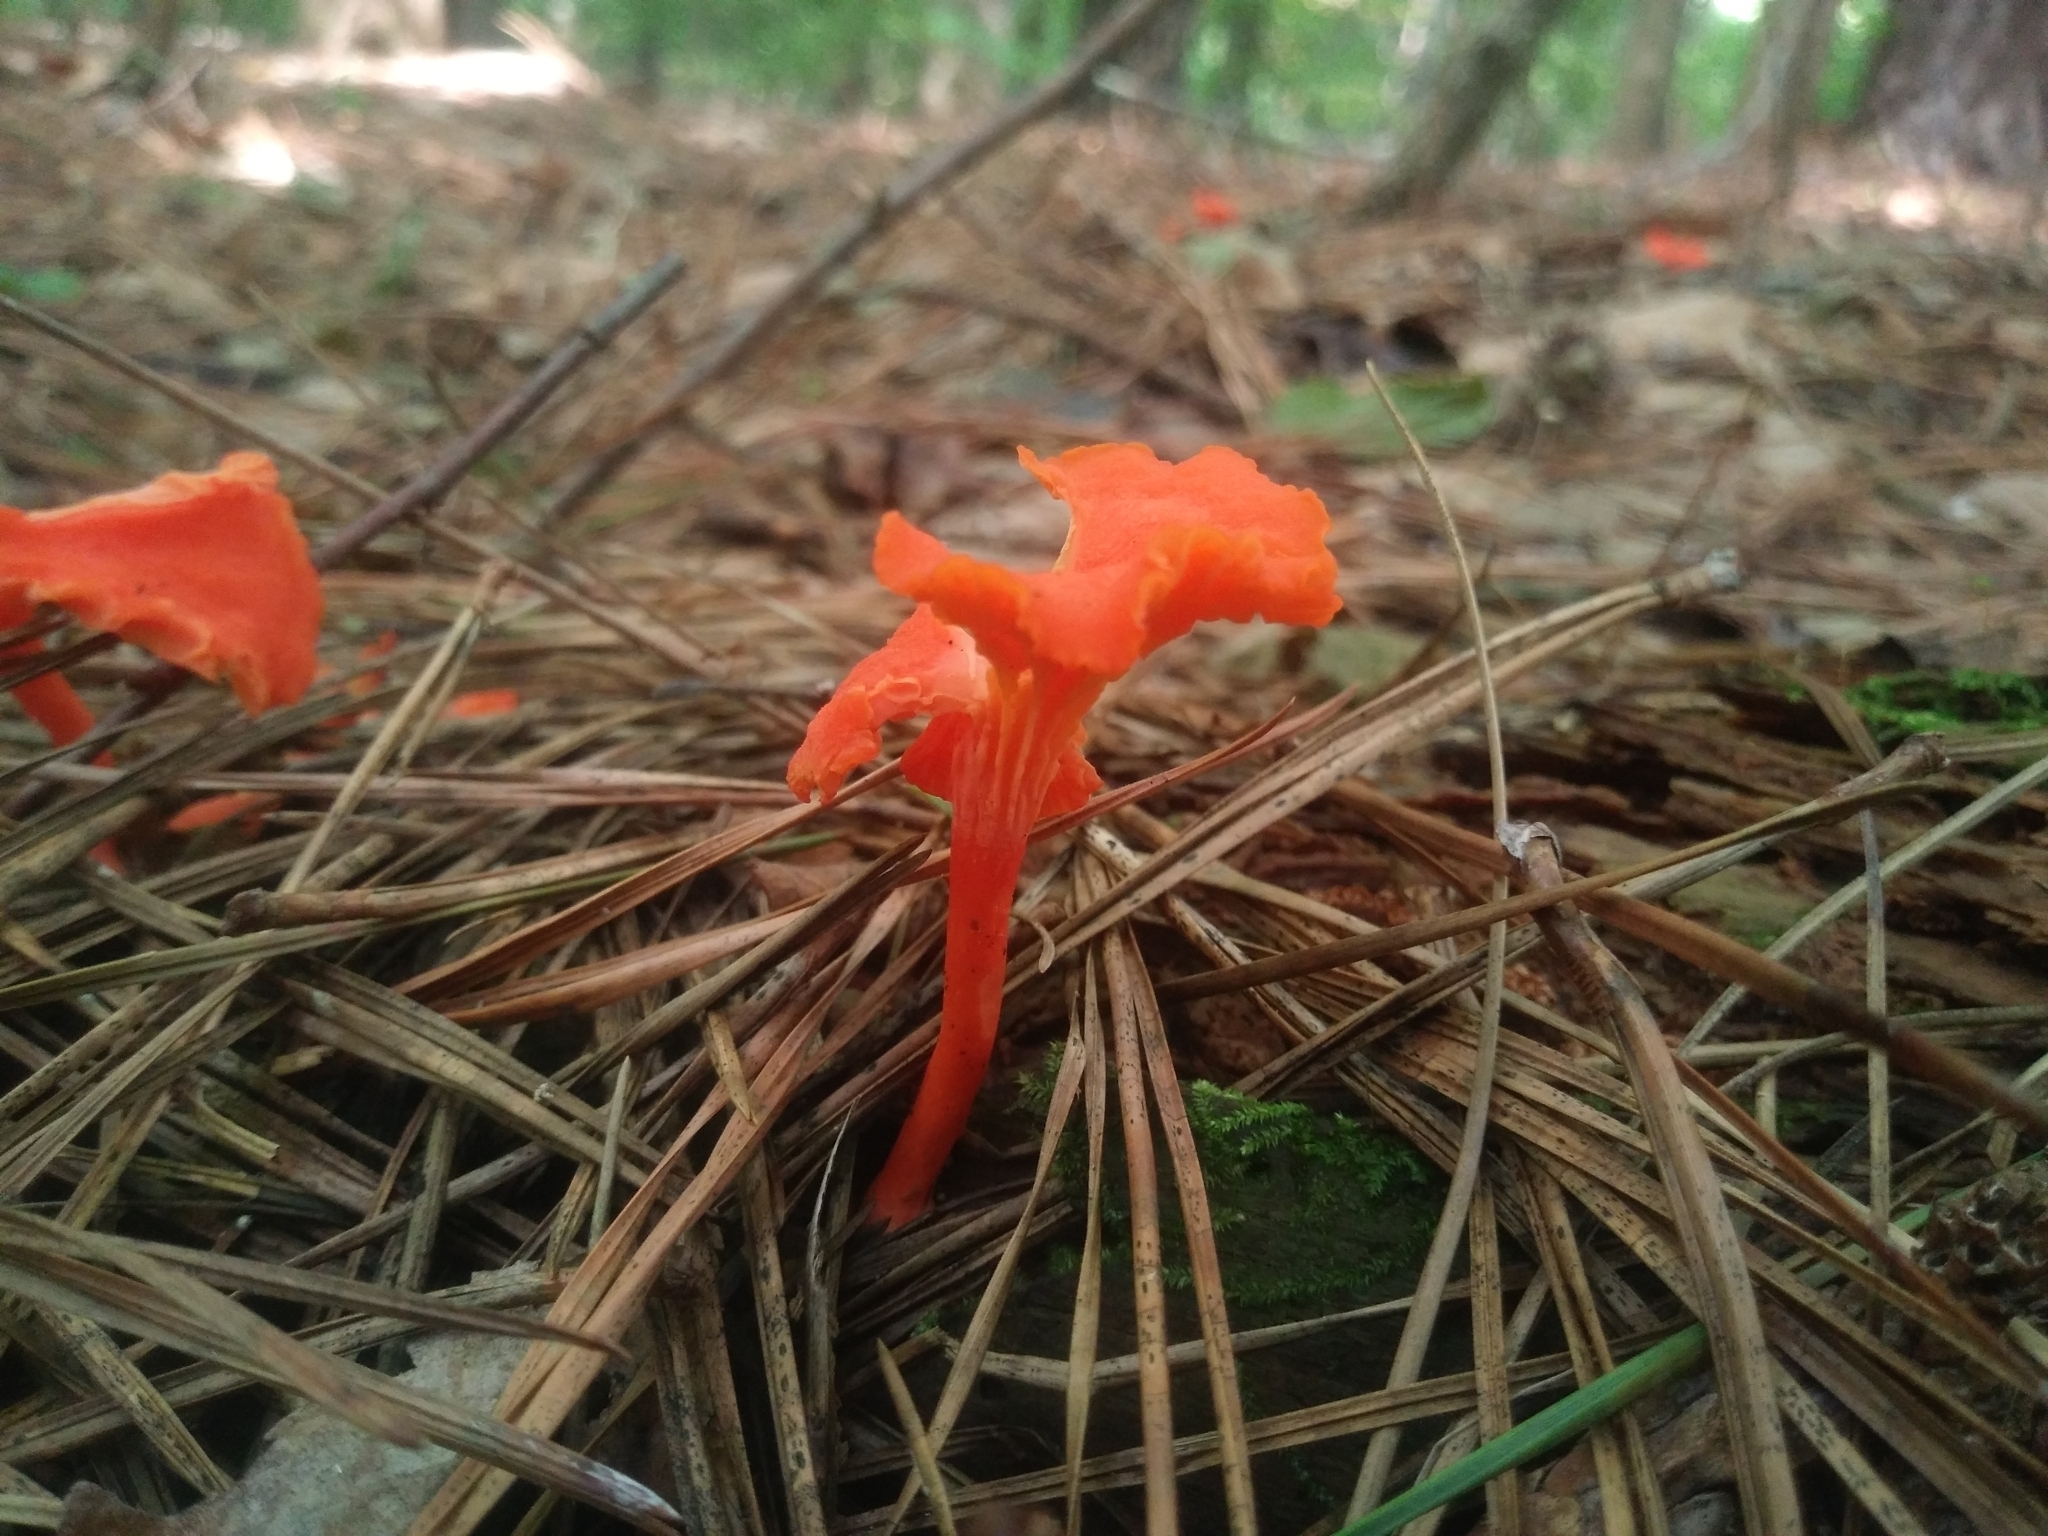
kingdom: Fungi
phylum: Basidiomycota
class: Agaricomycetes
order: Cantharellales
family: Hydnaceae
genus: Cantharellus
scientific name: Cantharellus cinnabarinus
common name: Cinnabar chanterelle
